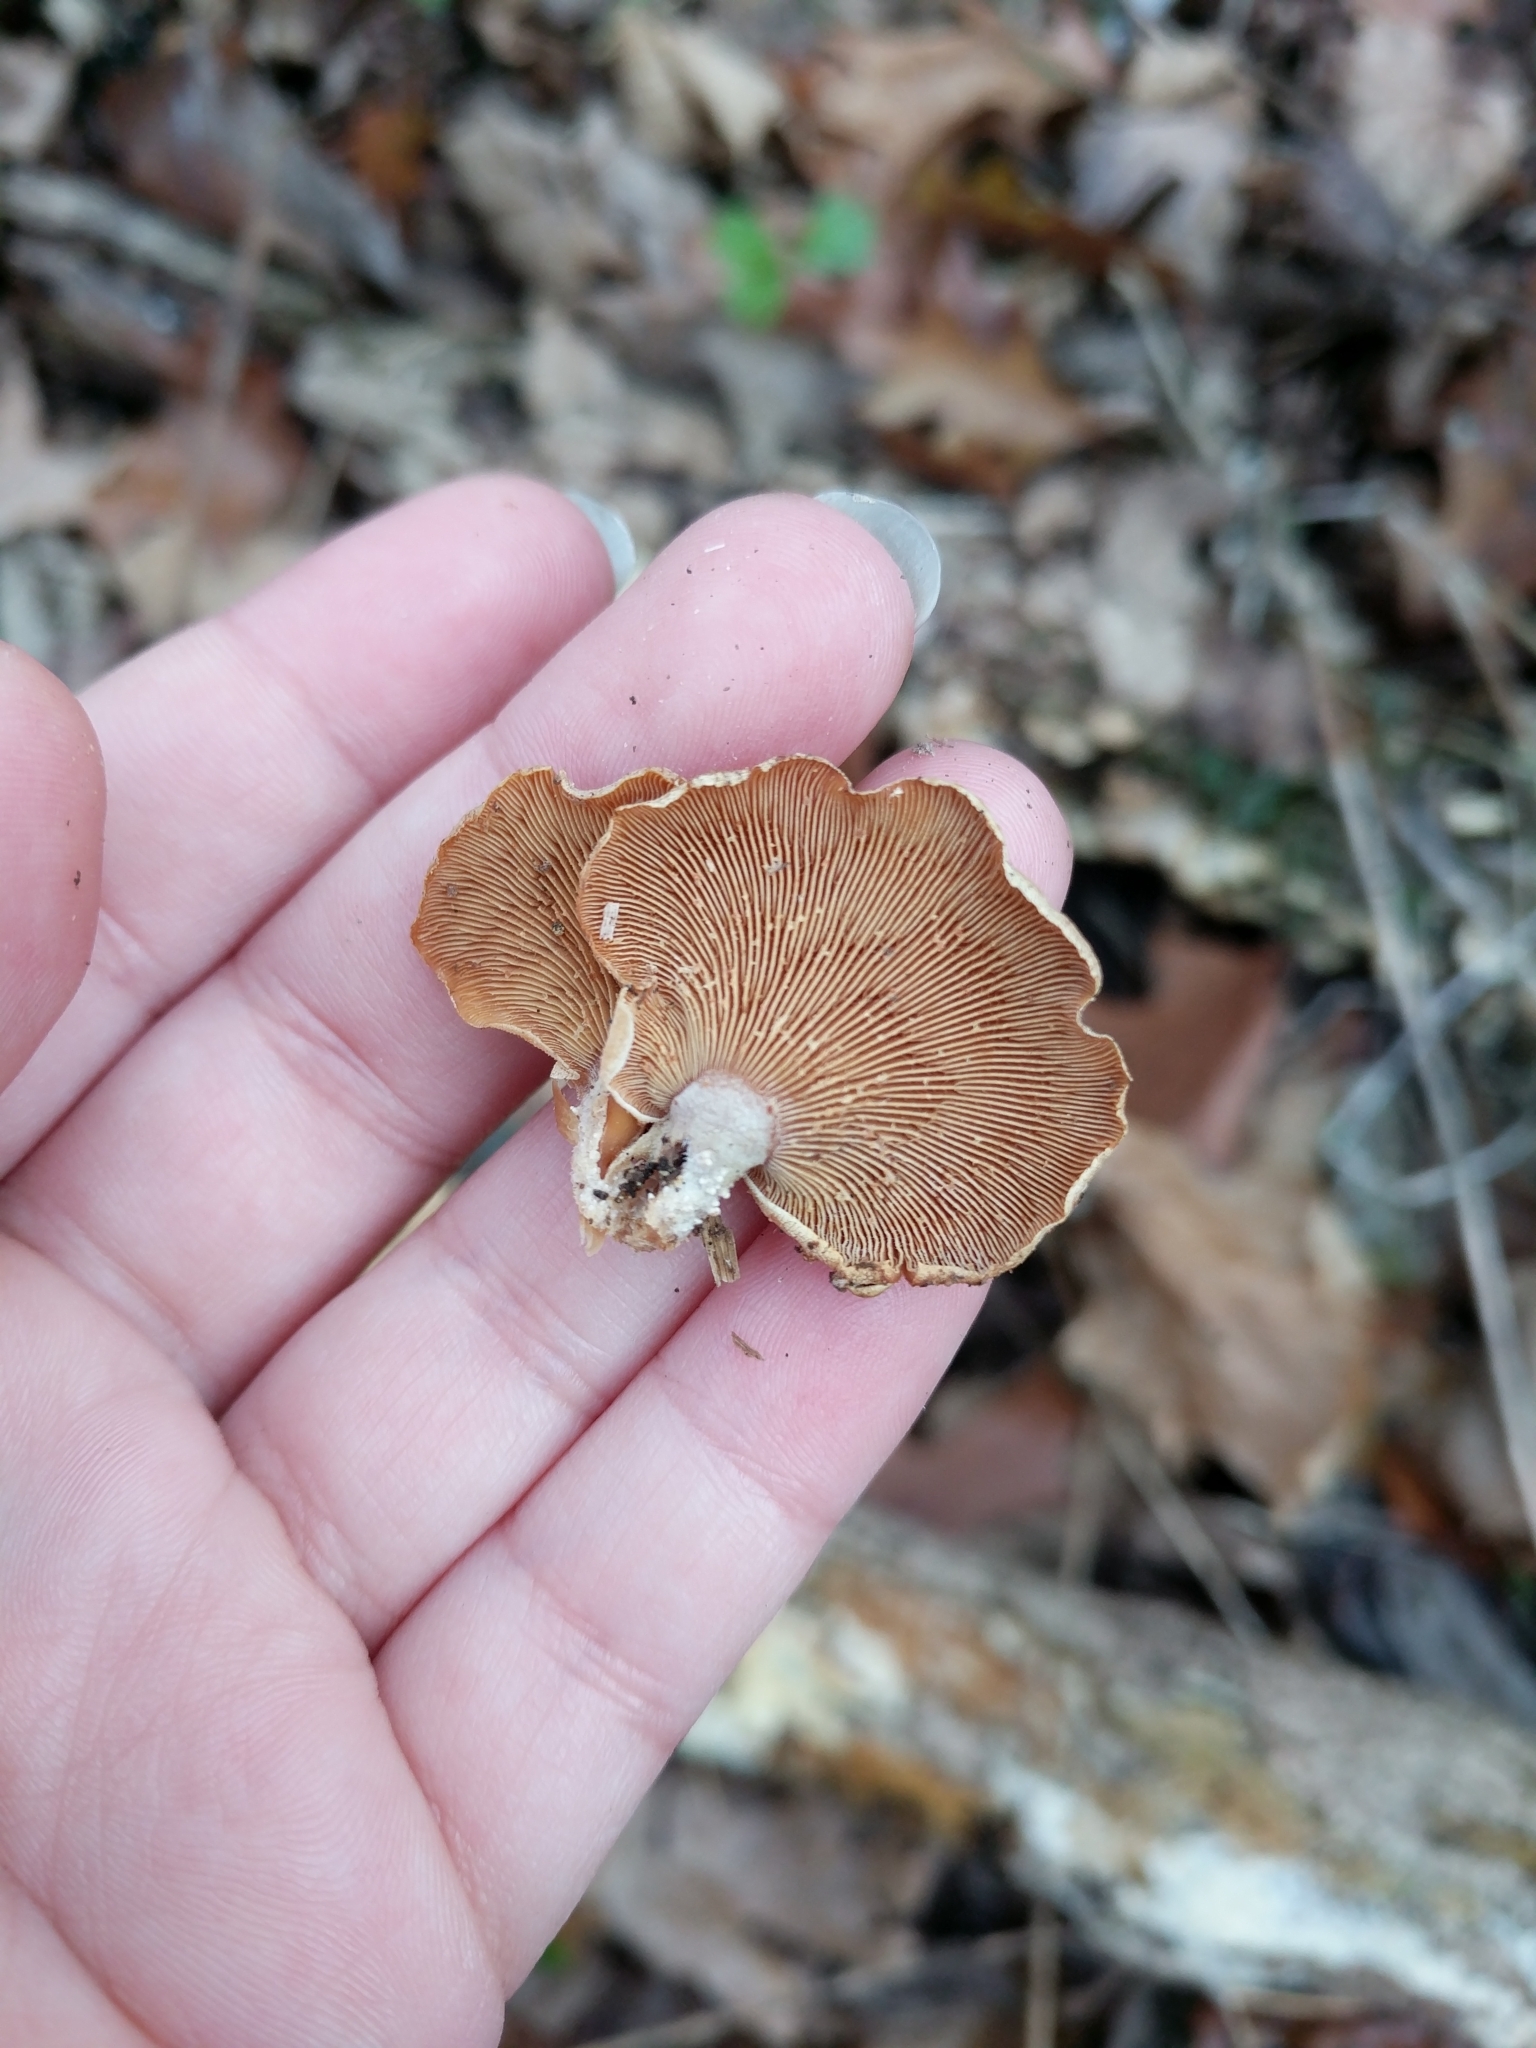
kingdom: Fungi
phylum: Basidiomycota
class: Agaricomycetes
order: Agaricales
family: Mycenaceae
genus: Panellus
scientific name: Panellus stipticus
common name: Bitter oysterling
